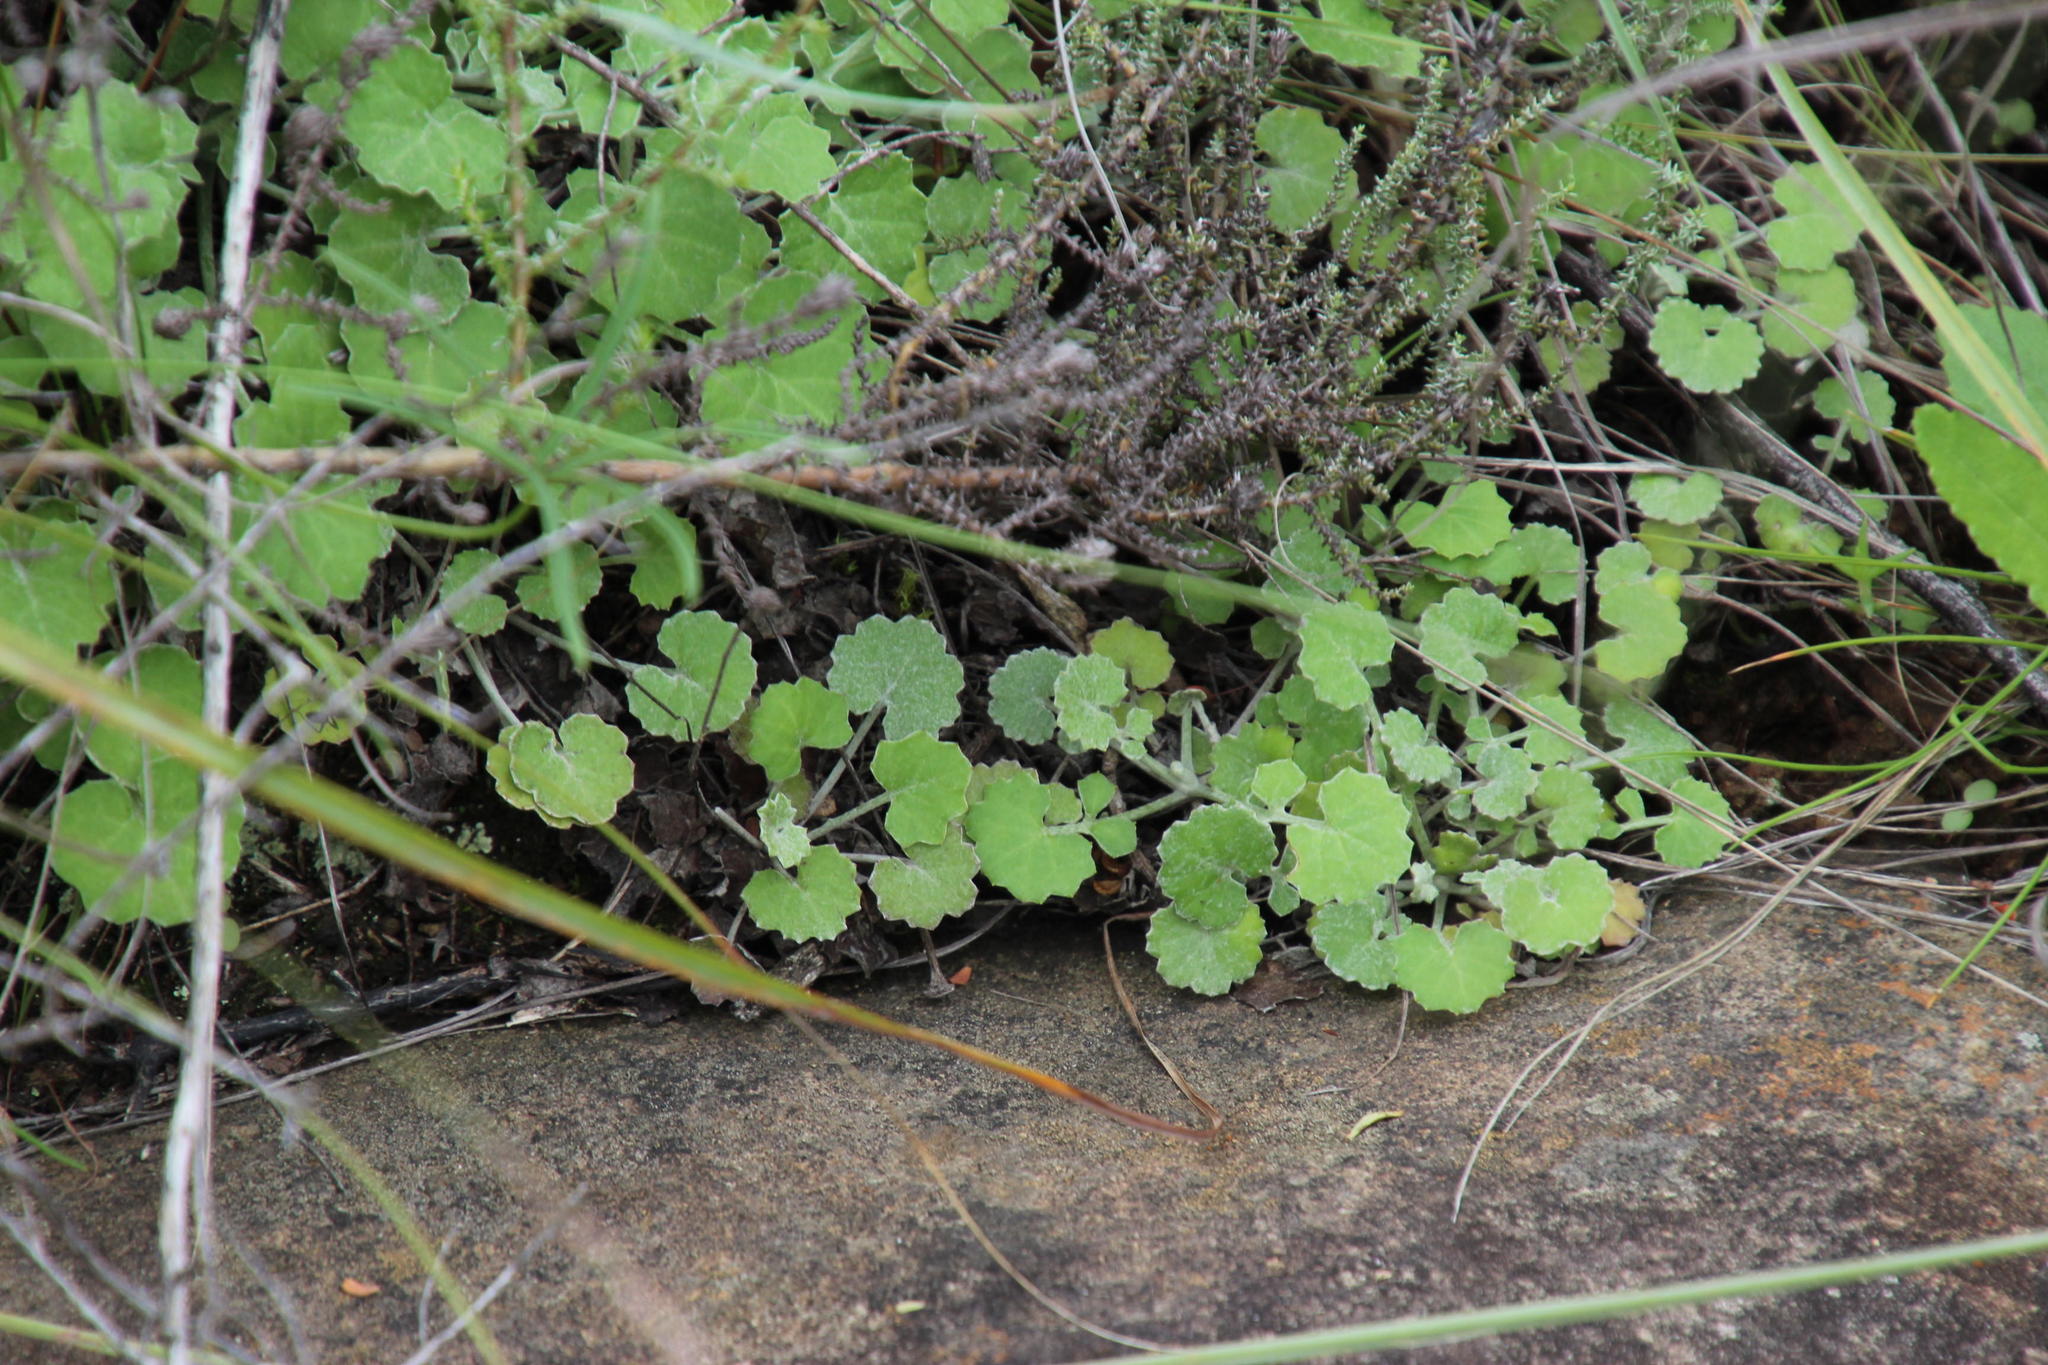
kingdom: Plantae
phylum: Tracheophyta
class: Magnoliopsida
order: Asterales
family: Asteraceae
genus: Cineraria
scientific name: Cineraria mollis
